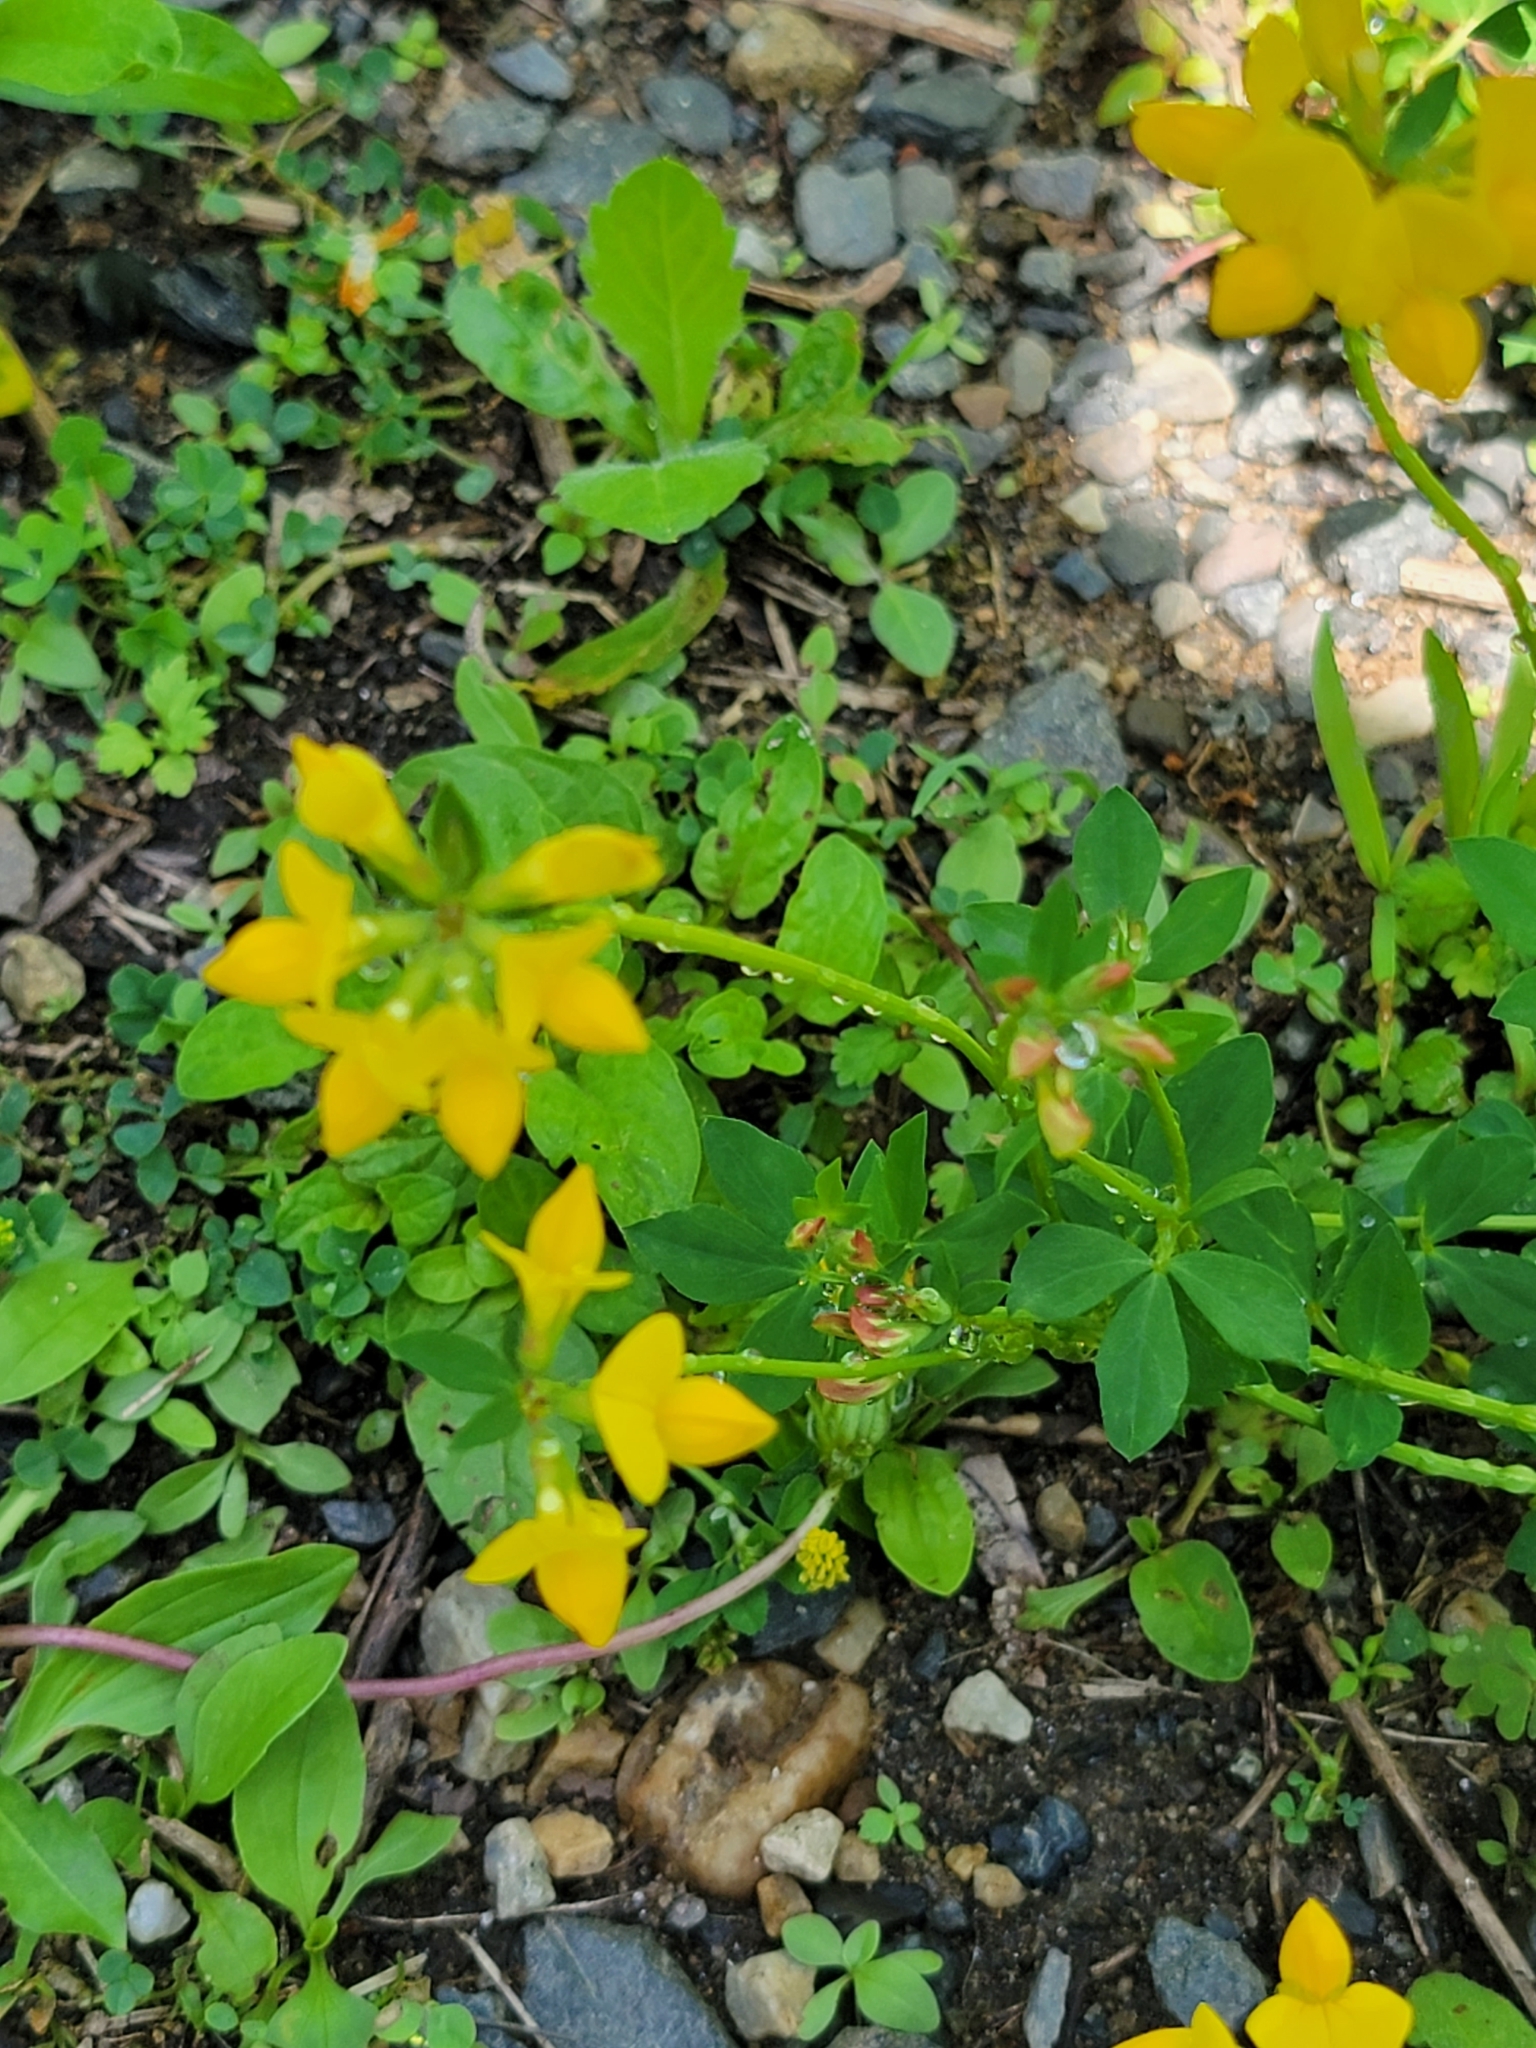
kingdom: Plantae
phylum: Tracheophyta
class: Magnoliopsida
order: Fabales
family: Fabaceae
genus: Lotus
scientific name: Lotus corniculatus
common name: Common bird's-foot-trefoil
